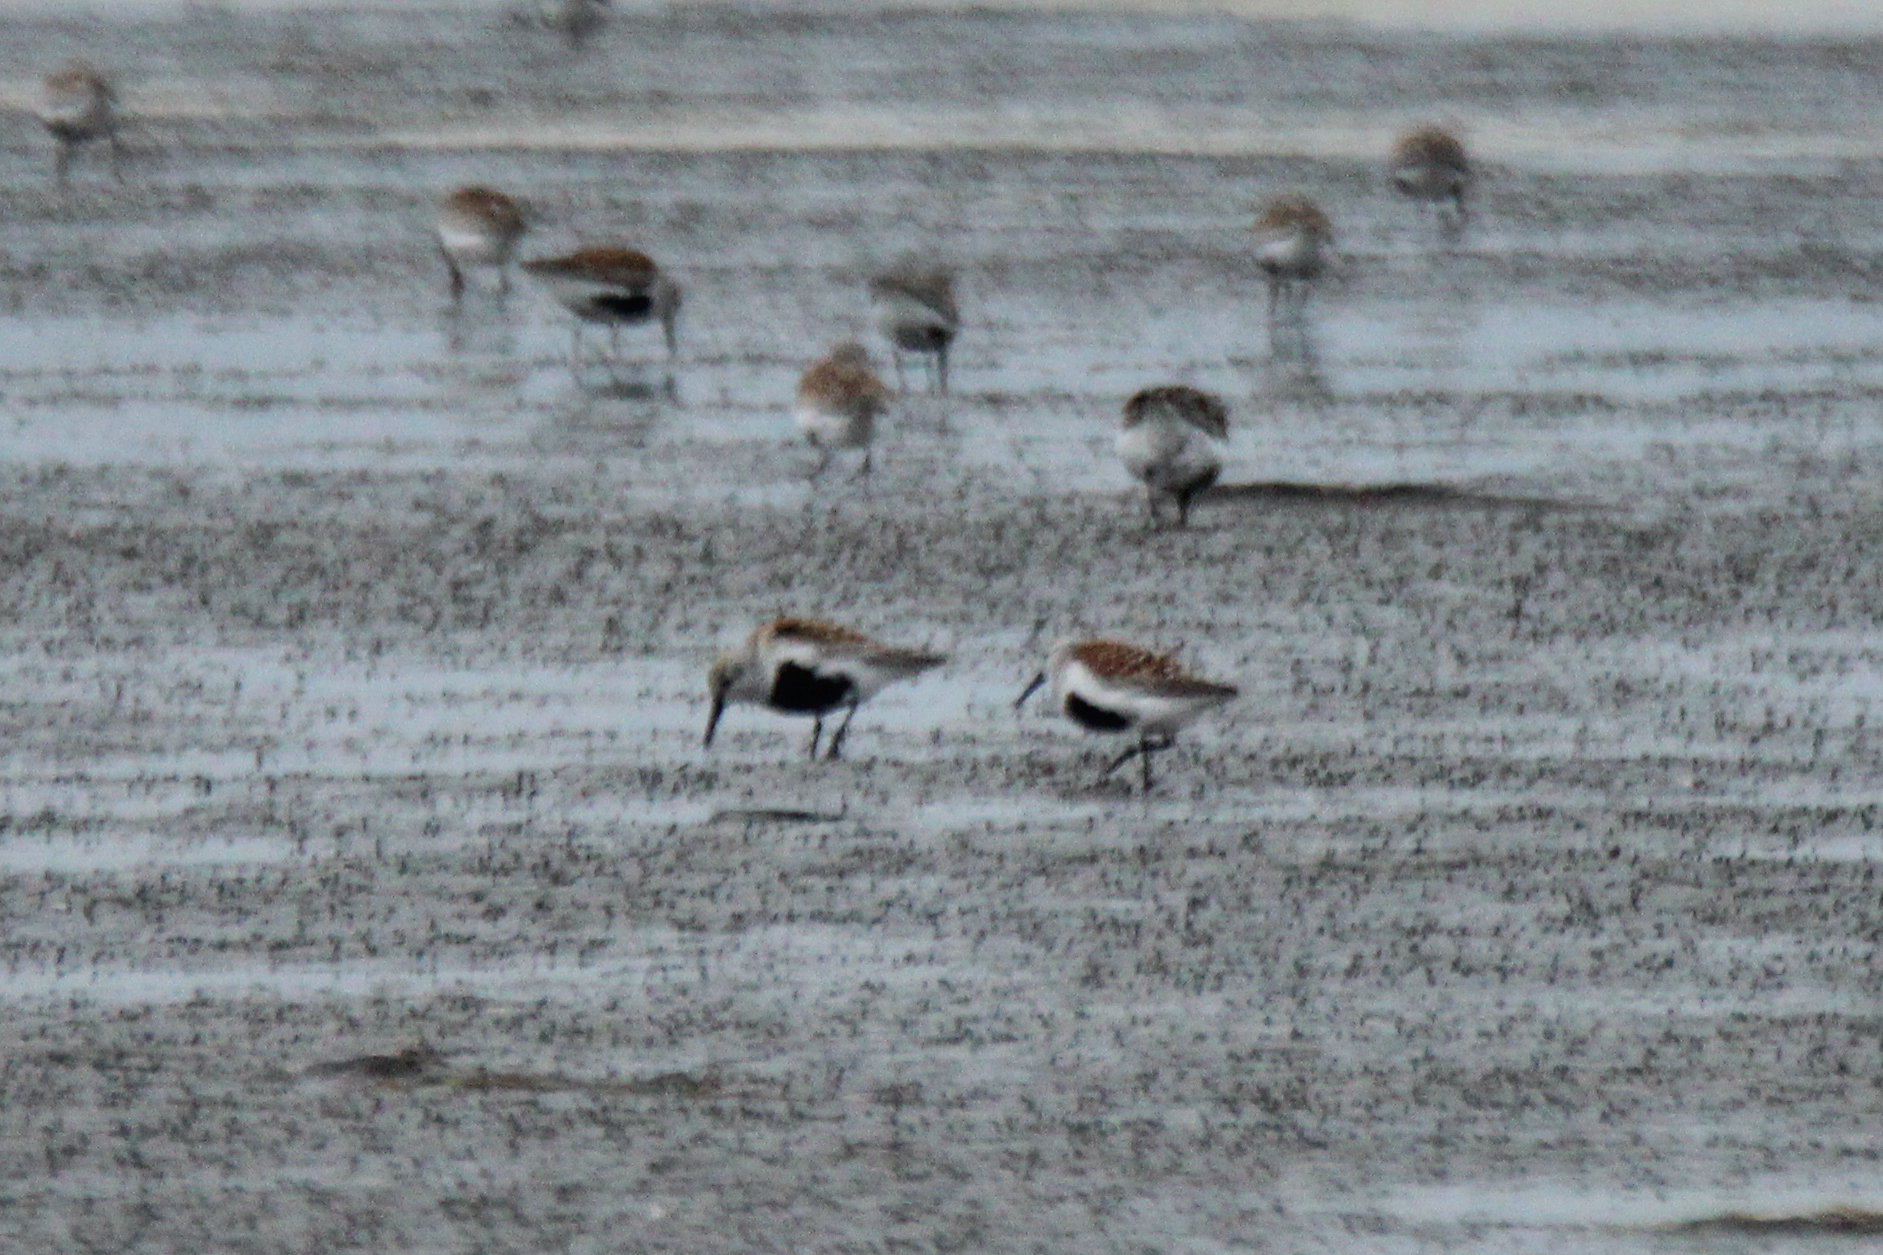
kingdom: Animalia
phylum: Chordata
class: Aves
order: Charadriiformes
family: Scolopacidae
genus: Calidris
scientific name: Calidris alpina
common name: Dunlin
